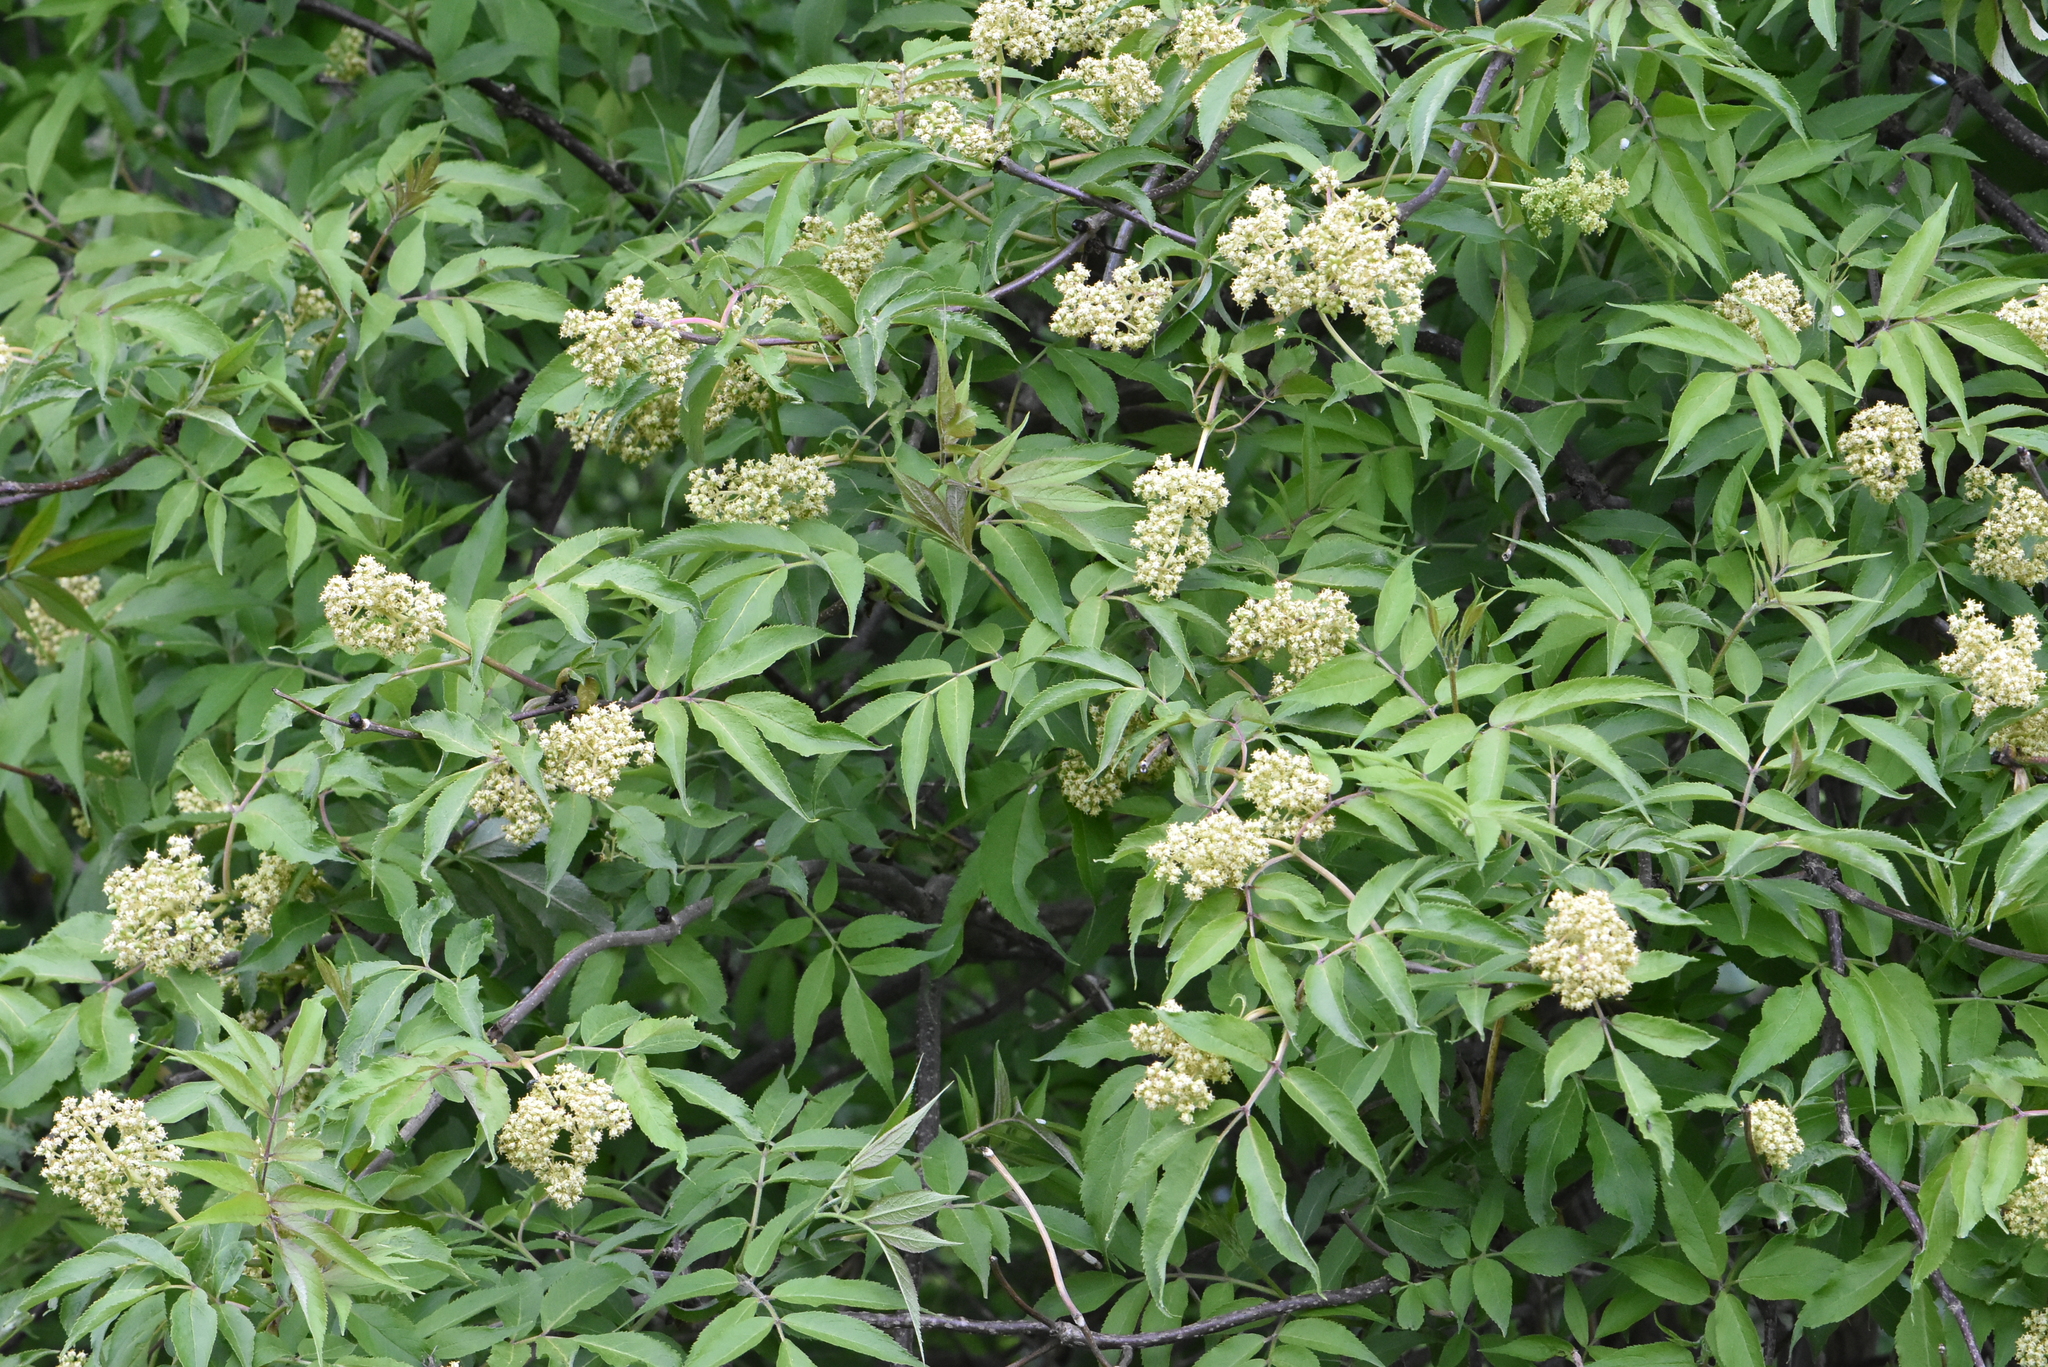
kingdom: Plantae
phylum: Tracheophyta
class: Magnoliopsida
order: Dipsacales
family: Viburnaceae
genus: Sambucus
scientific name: Sambucus racemosa
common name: Red-berried elder
